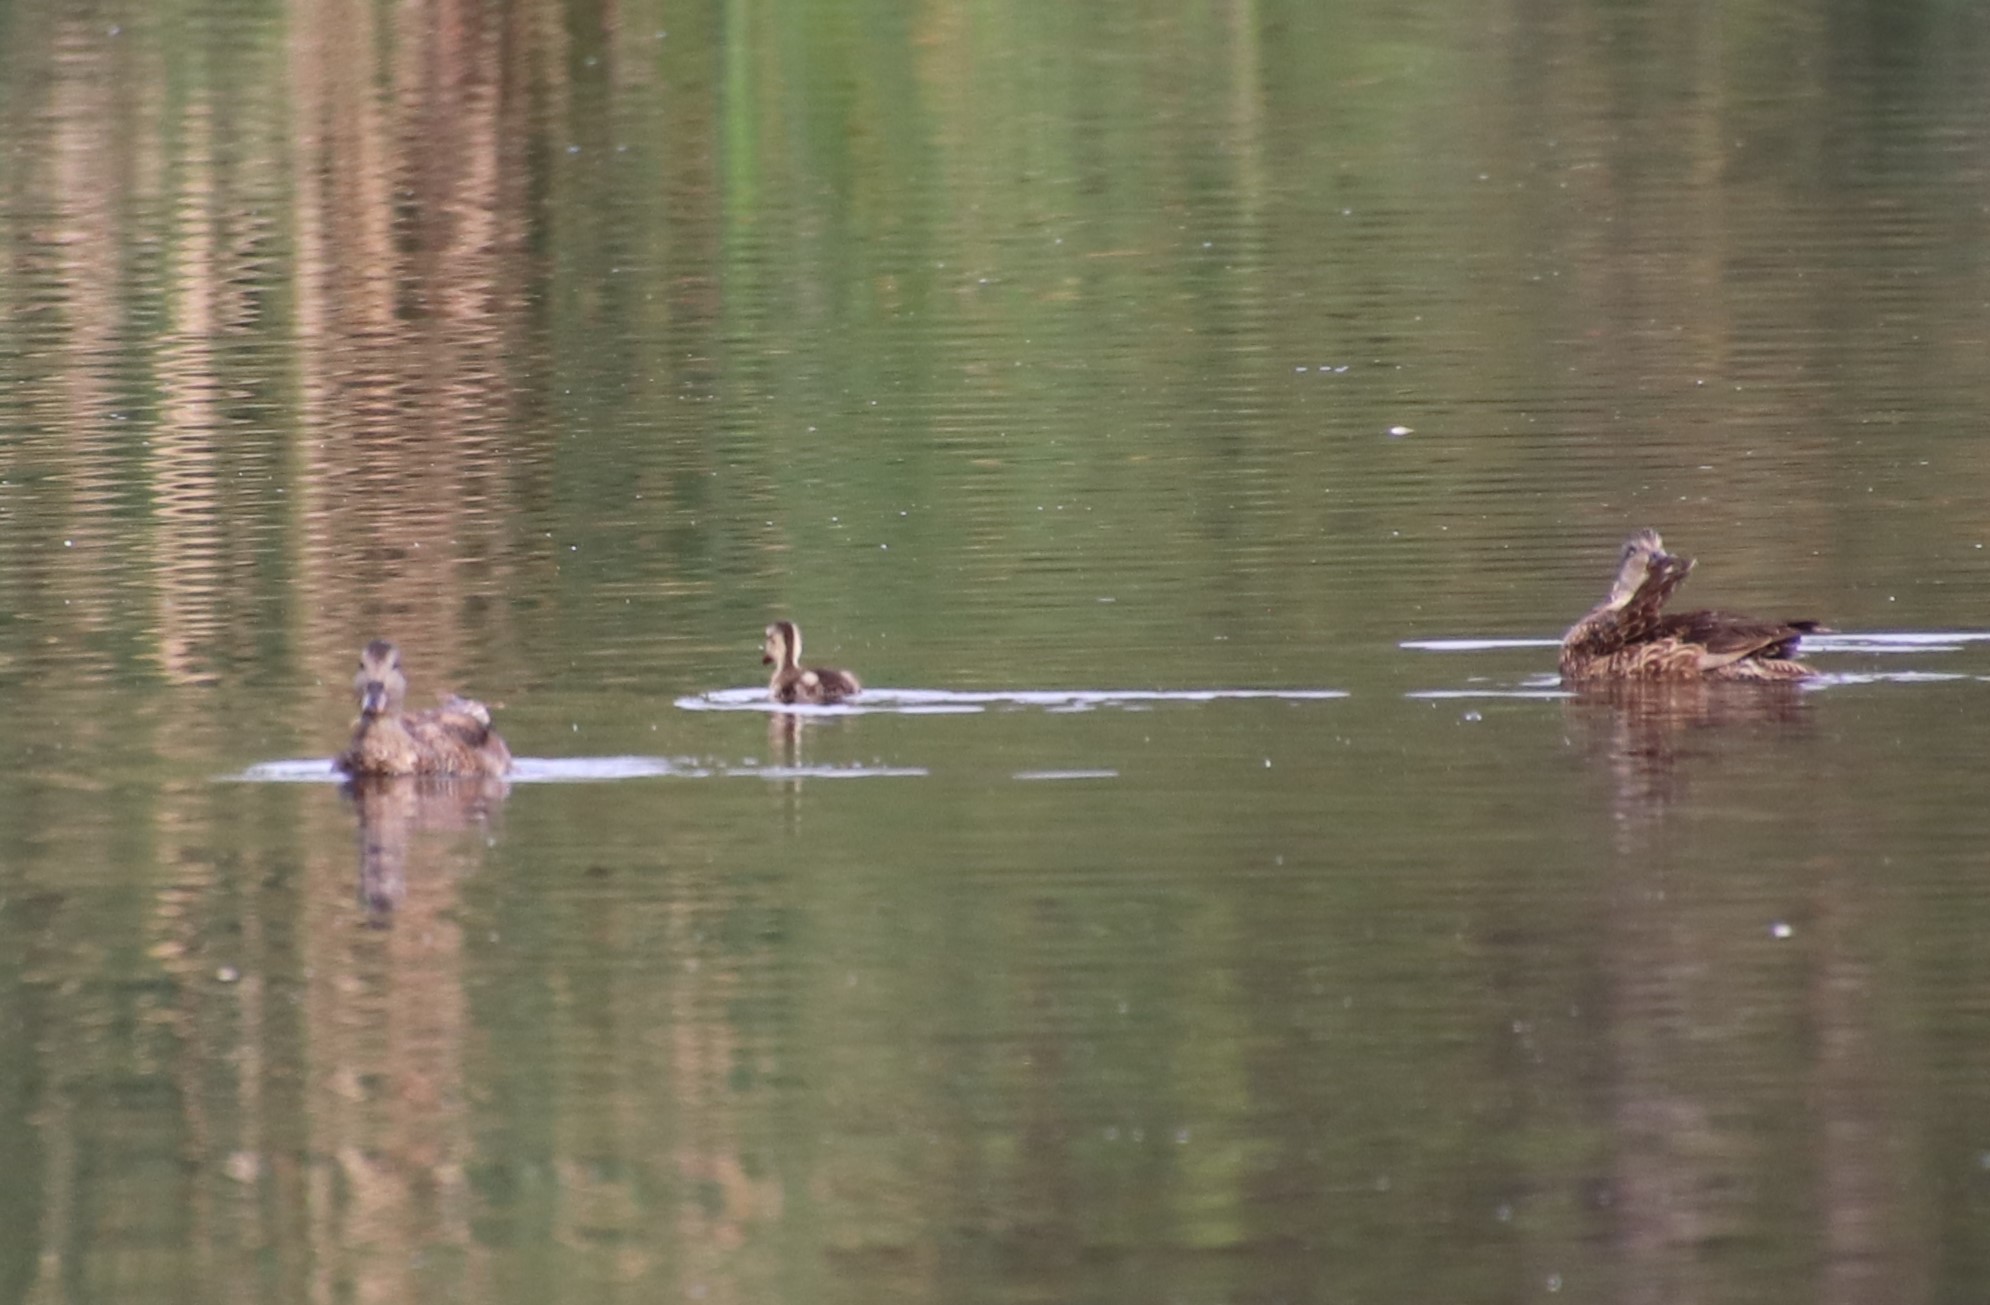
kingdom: Animalia
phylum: Chordata
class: Aves
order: Anseriformes
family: Anatidae
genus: Mareca
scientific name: Mareca strepera
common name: Gadwall
